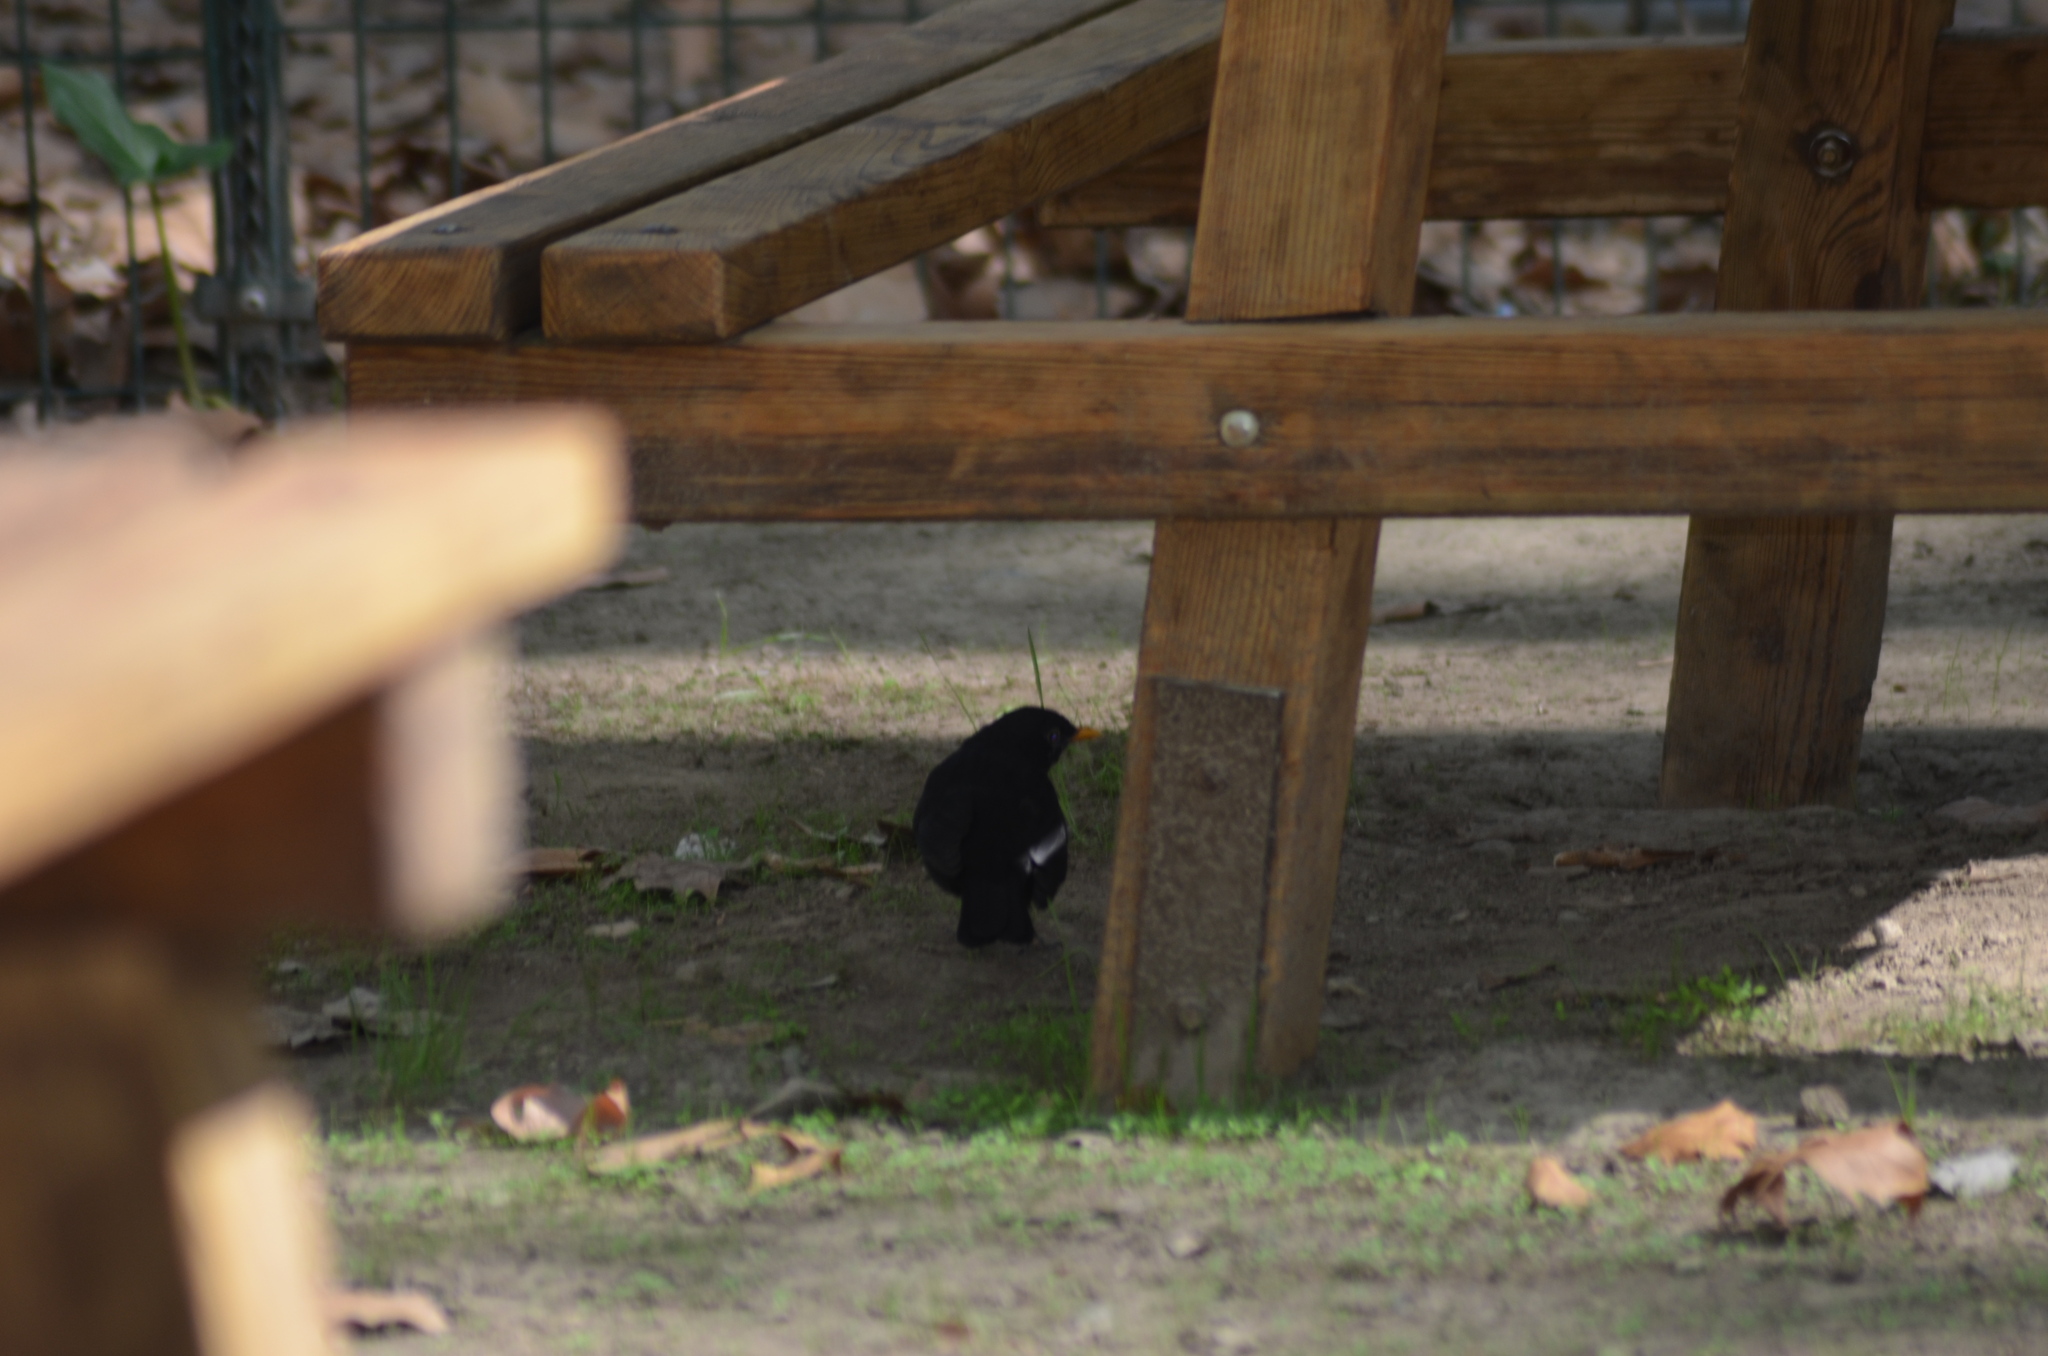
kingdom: Animalia
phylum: Chordata
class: Aves
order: Passeriformes
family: Turdidae
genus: Turdus
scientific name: Turdus merula
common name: Common blackbird
